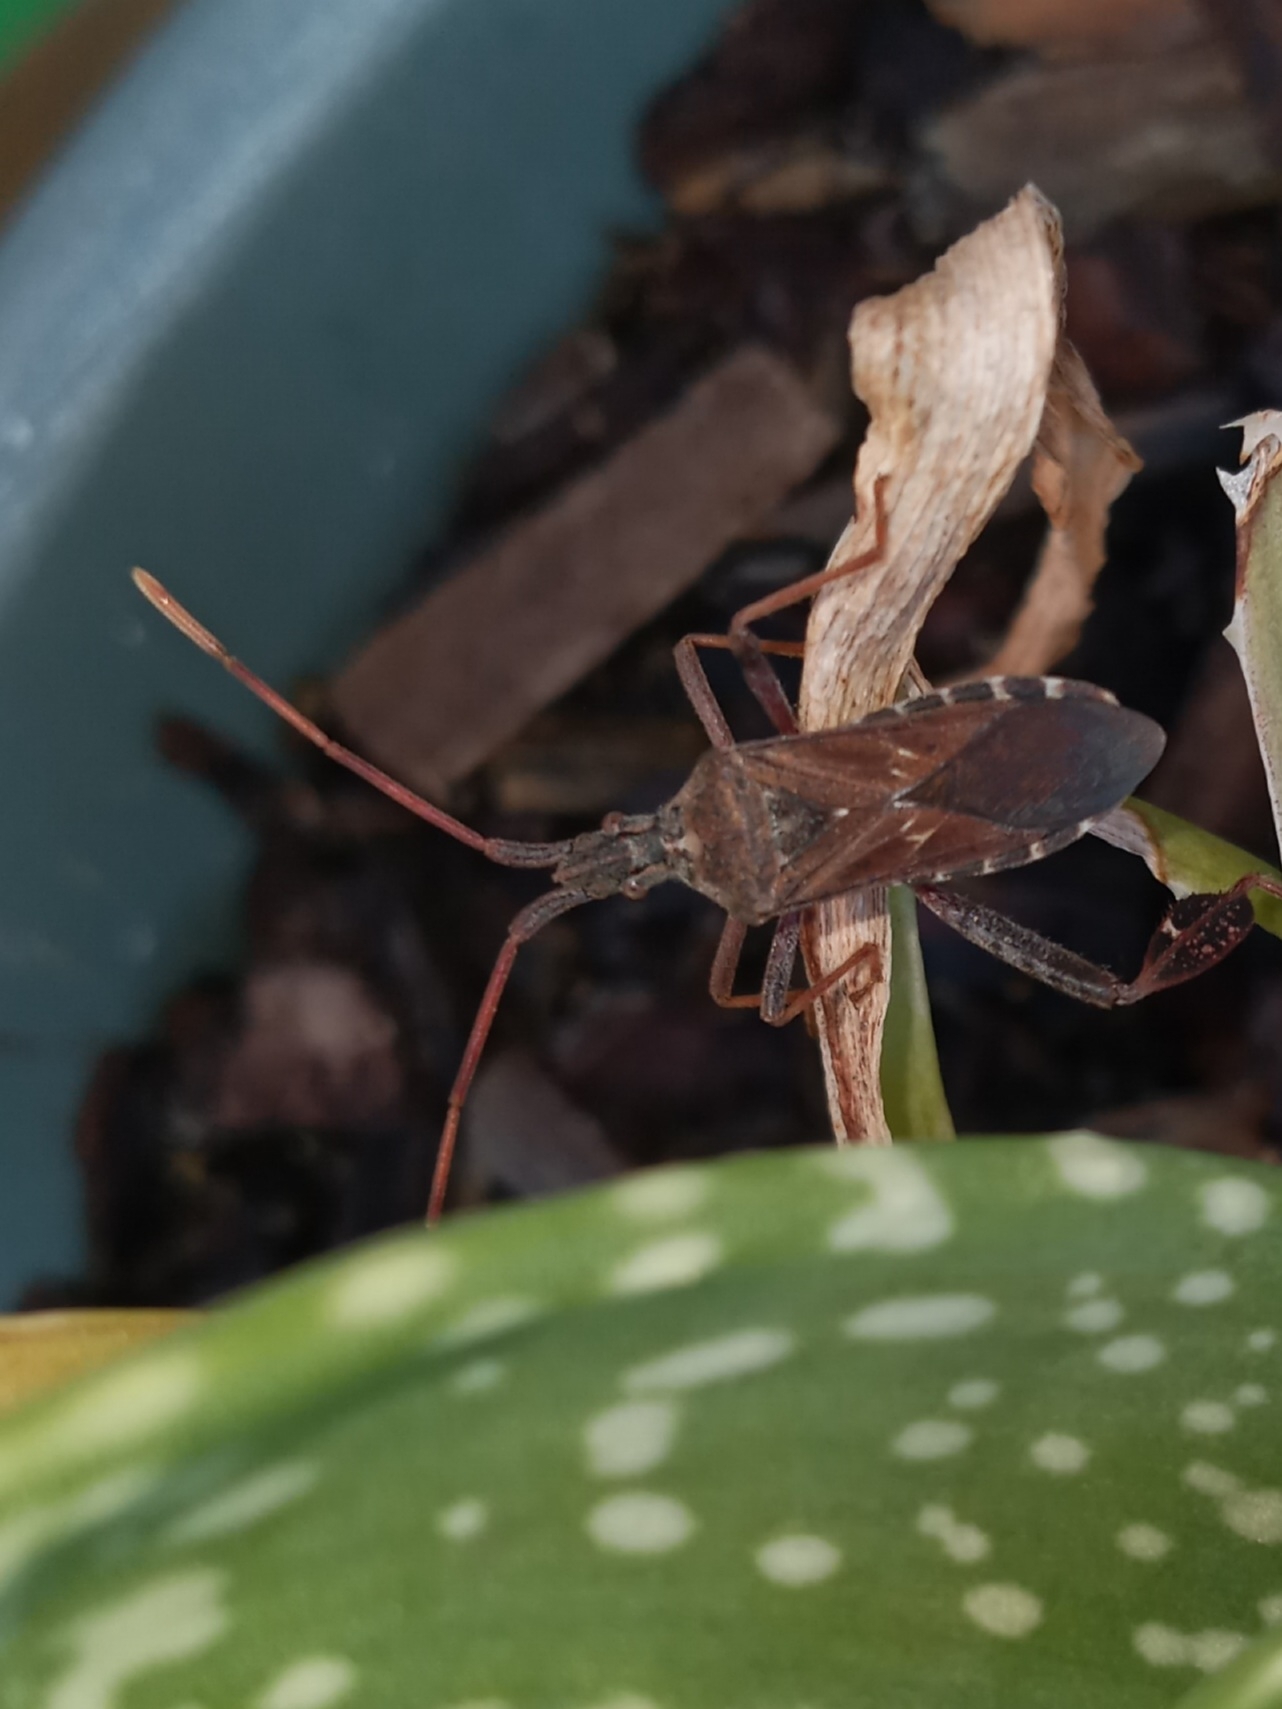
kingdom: Animalia
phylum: Arthropoda
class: Insecta
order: Hemiptera
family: Coreidae
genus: Leptoglossus
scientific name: Leptoglossus corculus
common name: Southern pine seed bug
